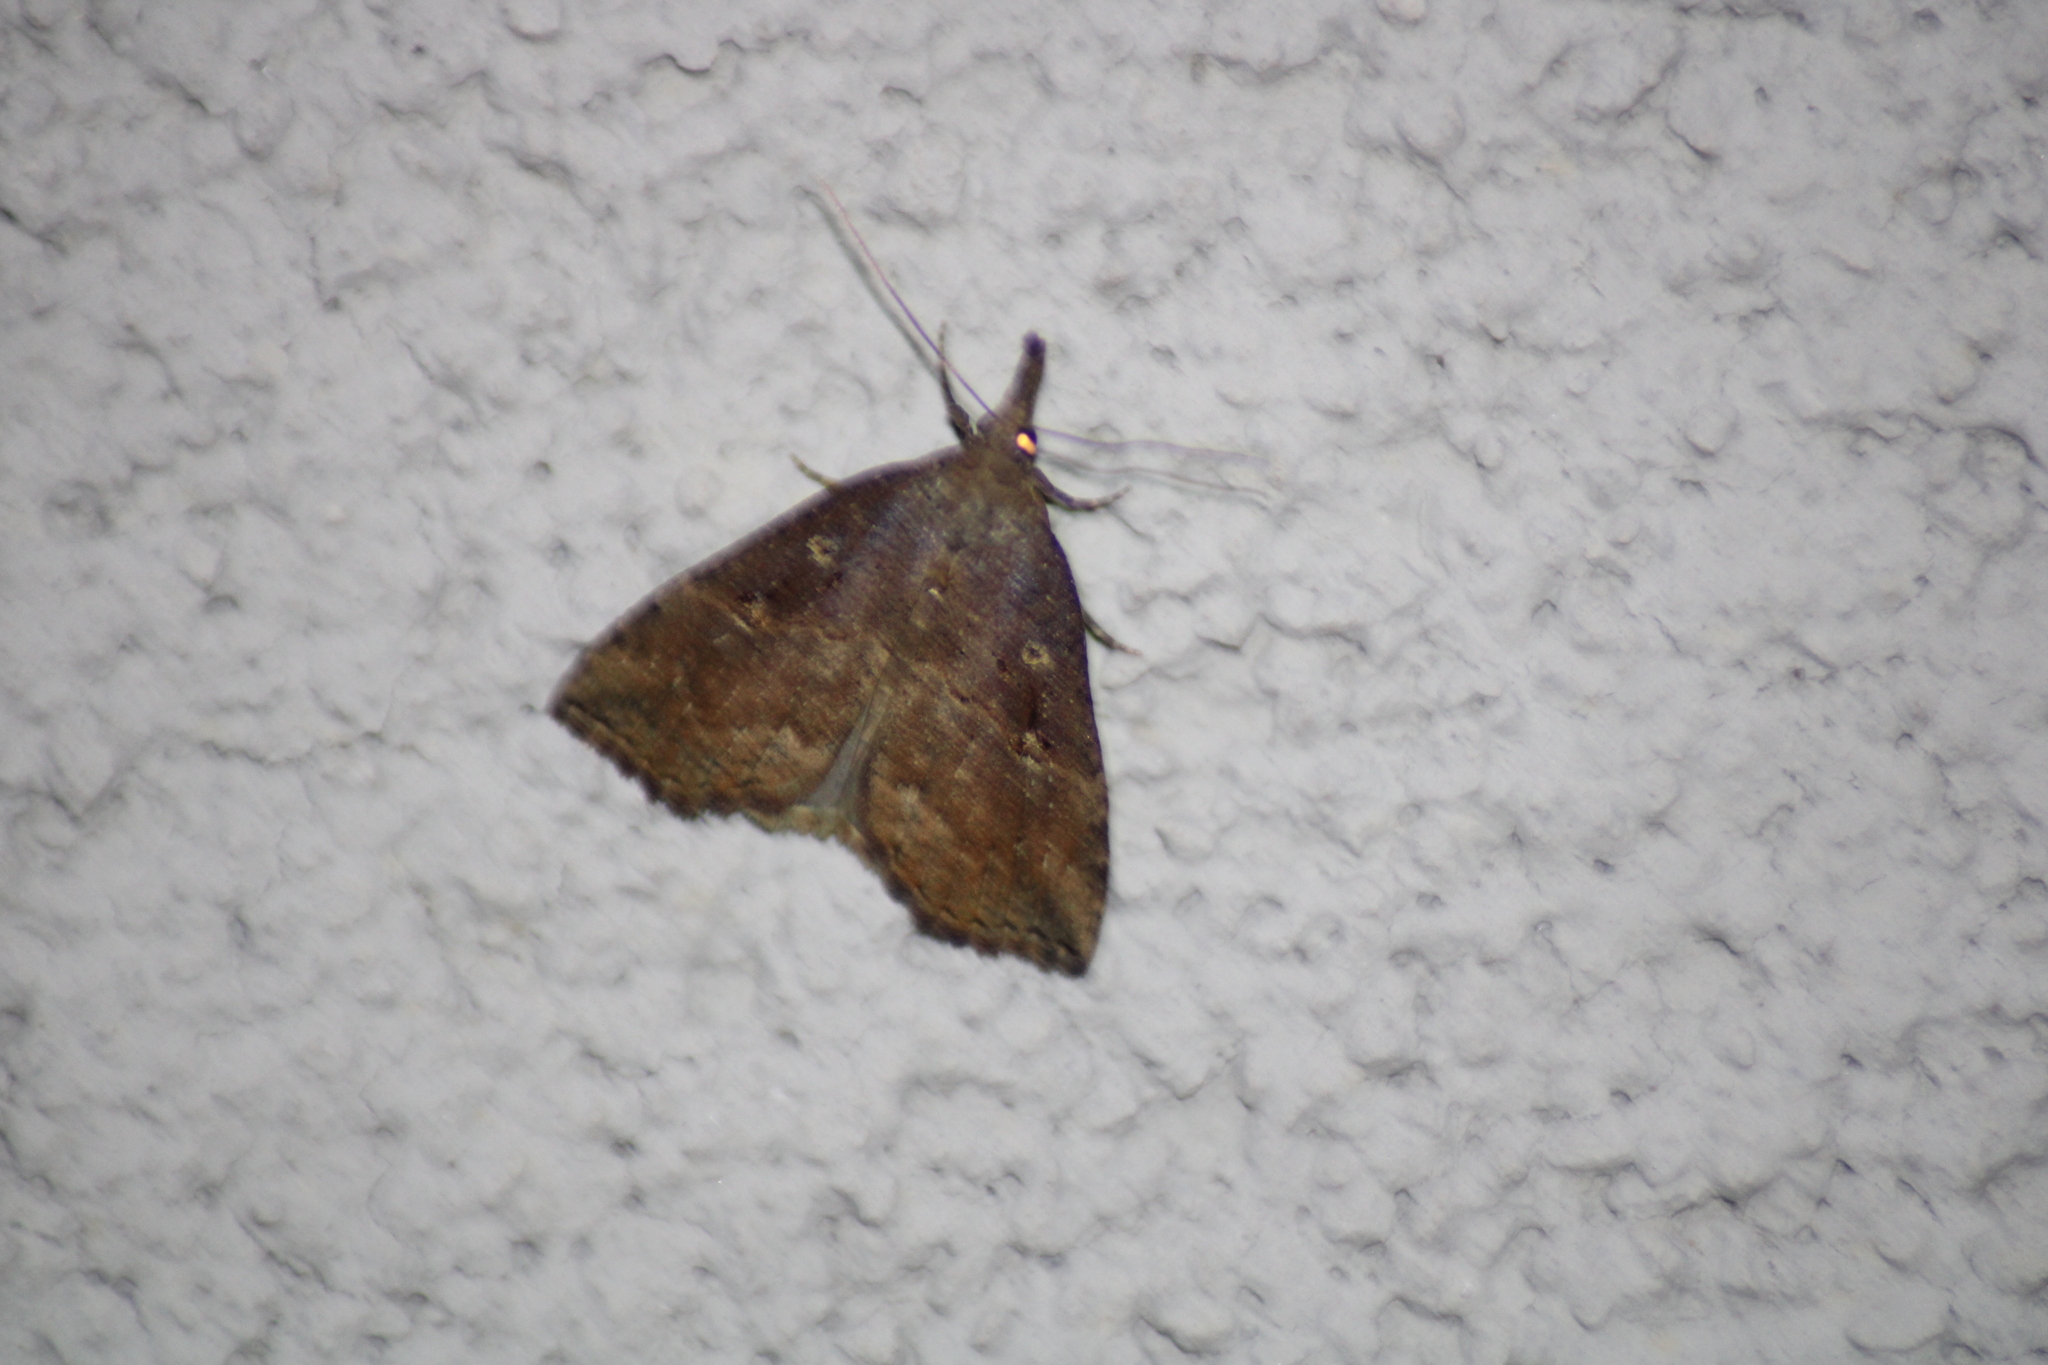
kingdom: Animalia
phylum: Arthropoda
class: Insecta
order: Lepidoptera
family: Erebidae
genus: Hypena
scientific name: Hypena rostralis
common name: Buttoned snout
